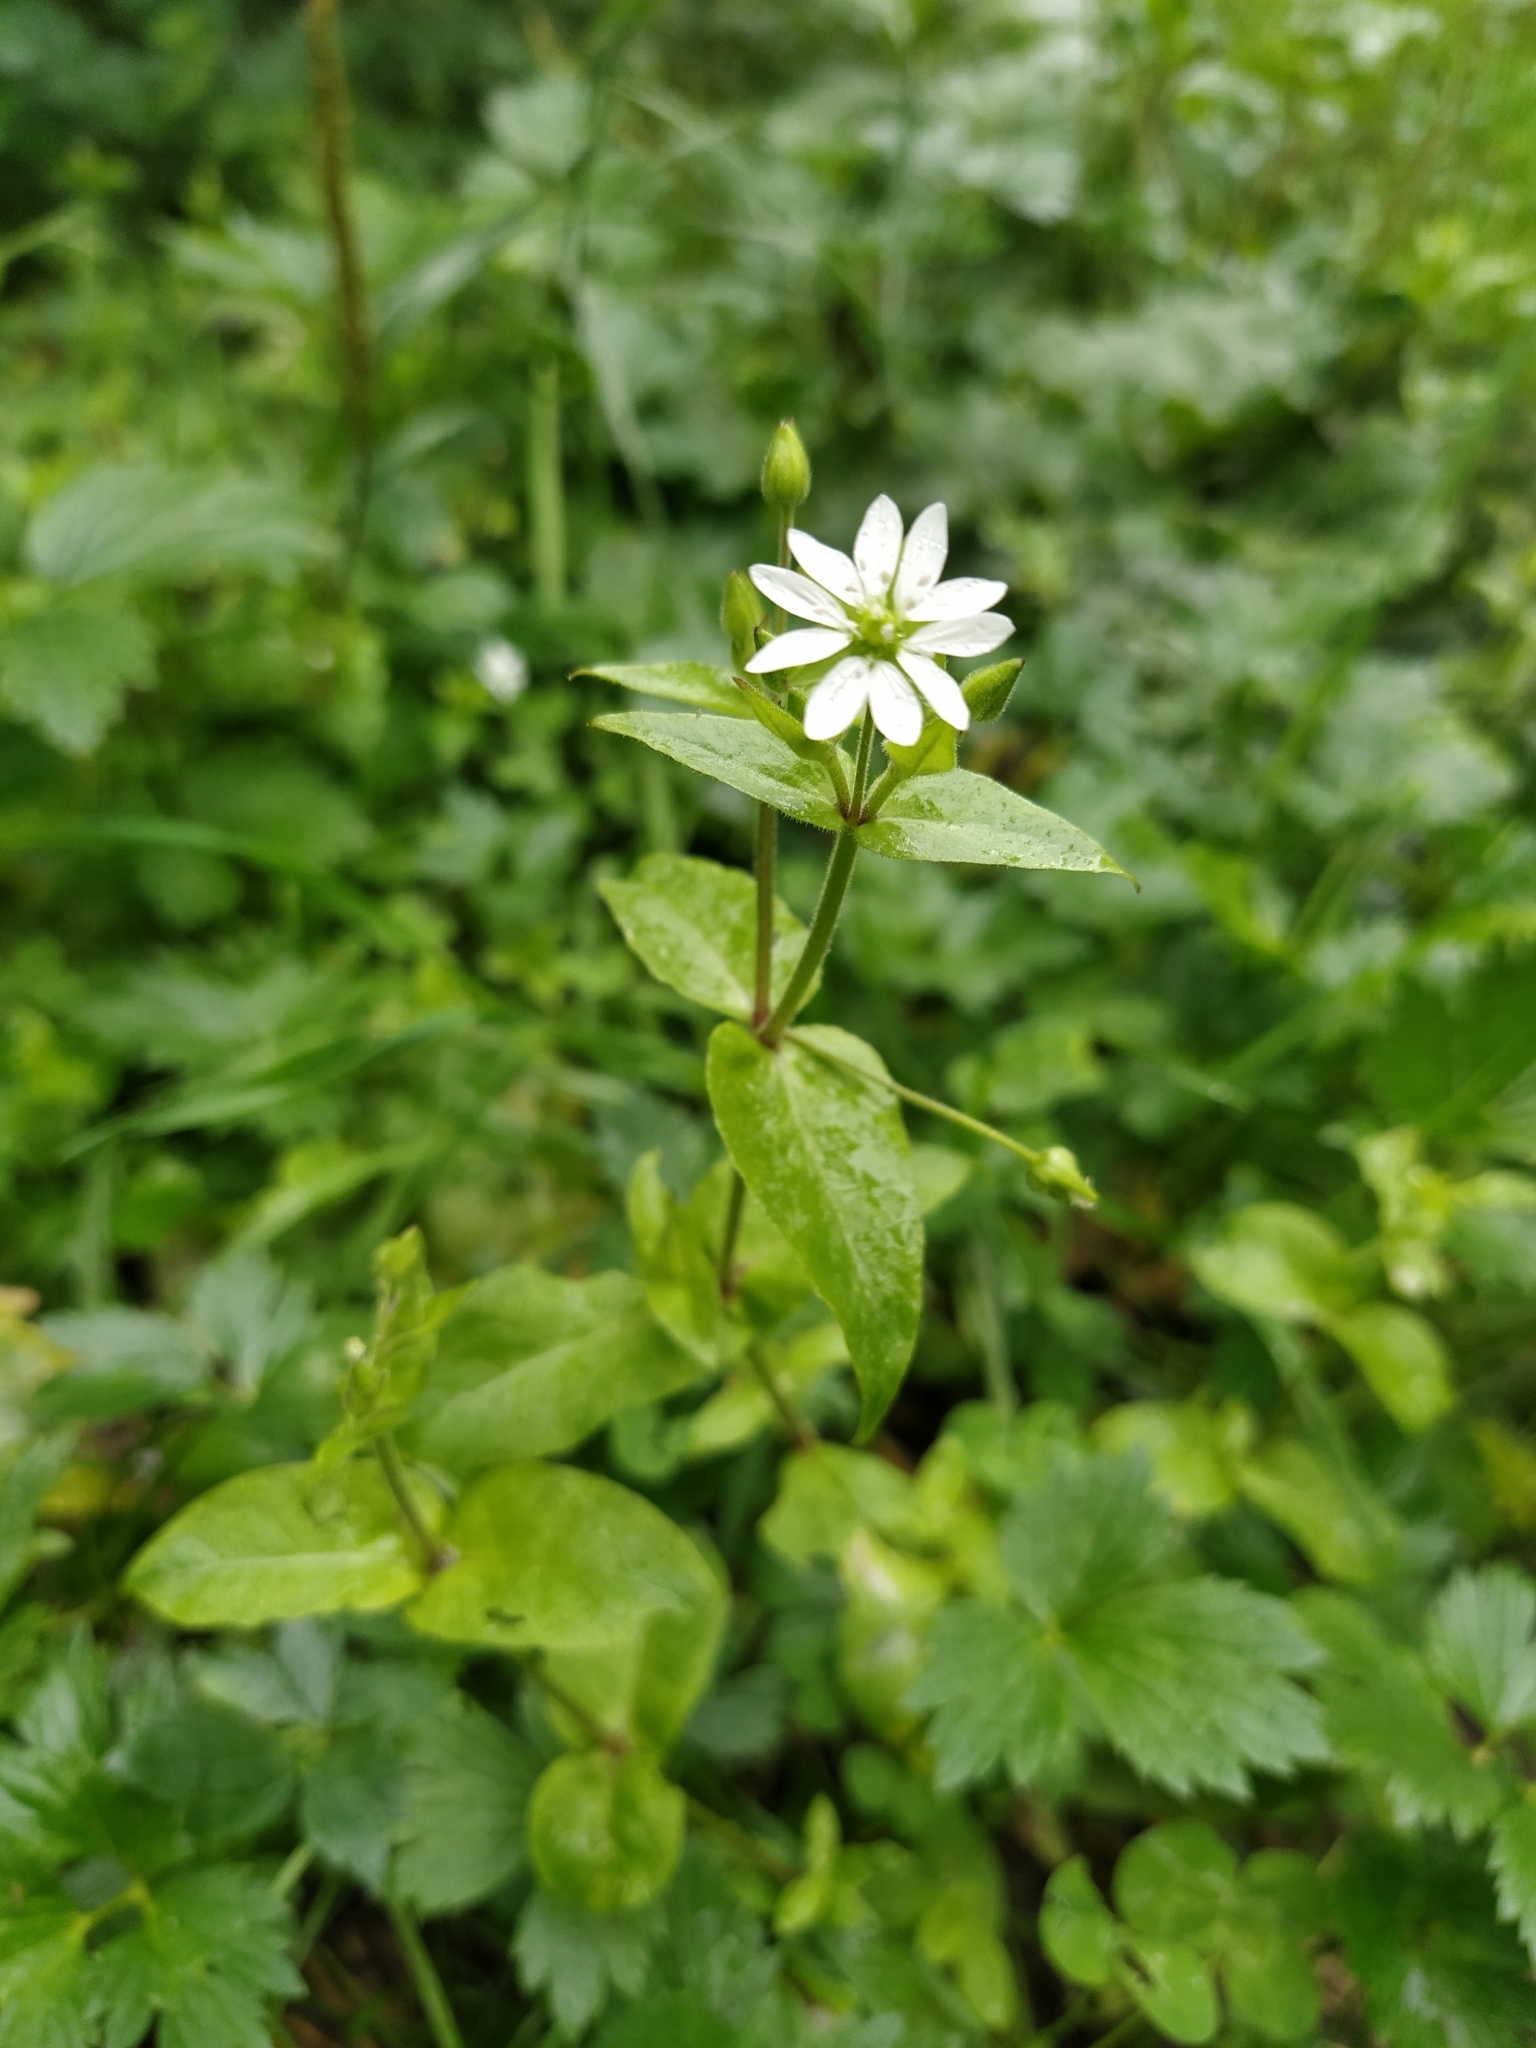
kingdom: Plantae
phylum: Tracheophyta
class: Magnoliopsida
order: Caryophyllales
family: Caryophyllaceae
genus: Stellaria
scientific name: Stellaria aquatica
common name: Water chickweed
